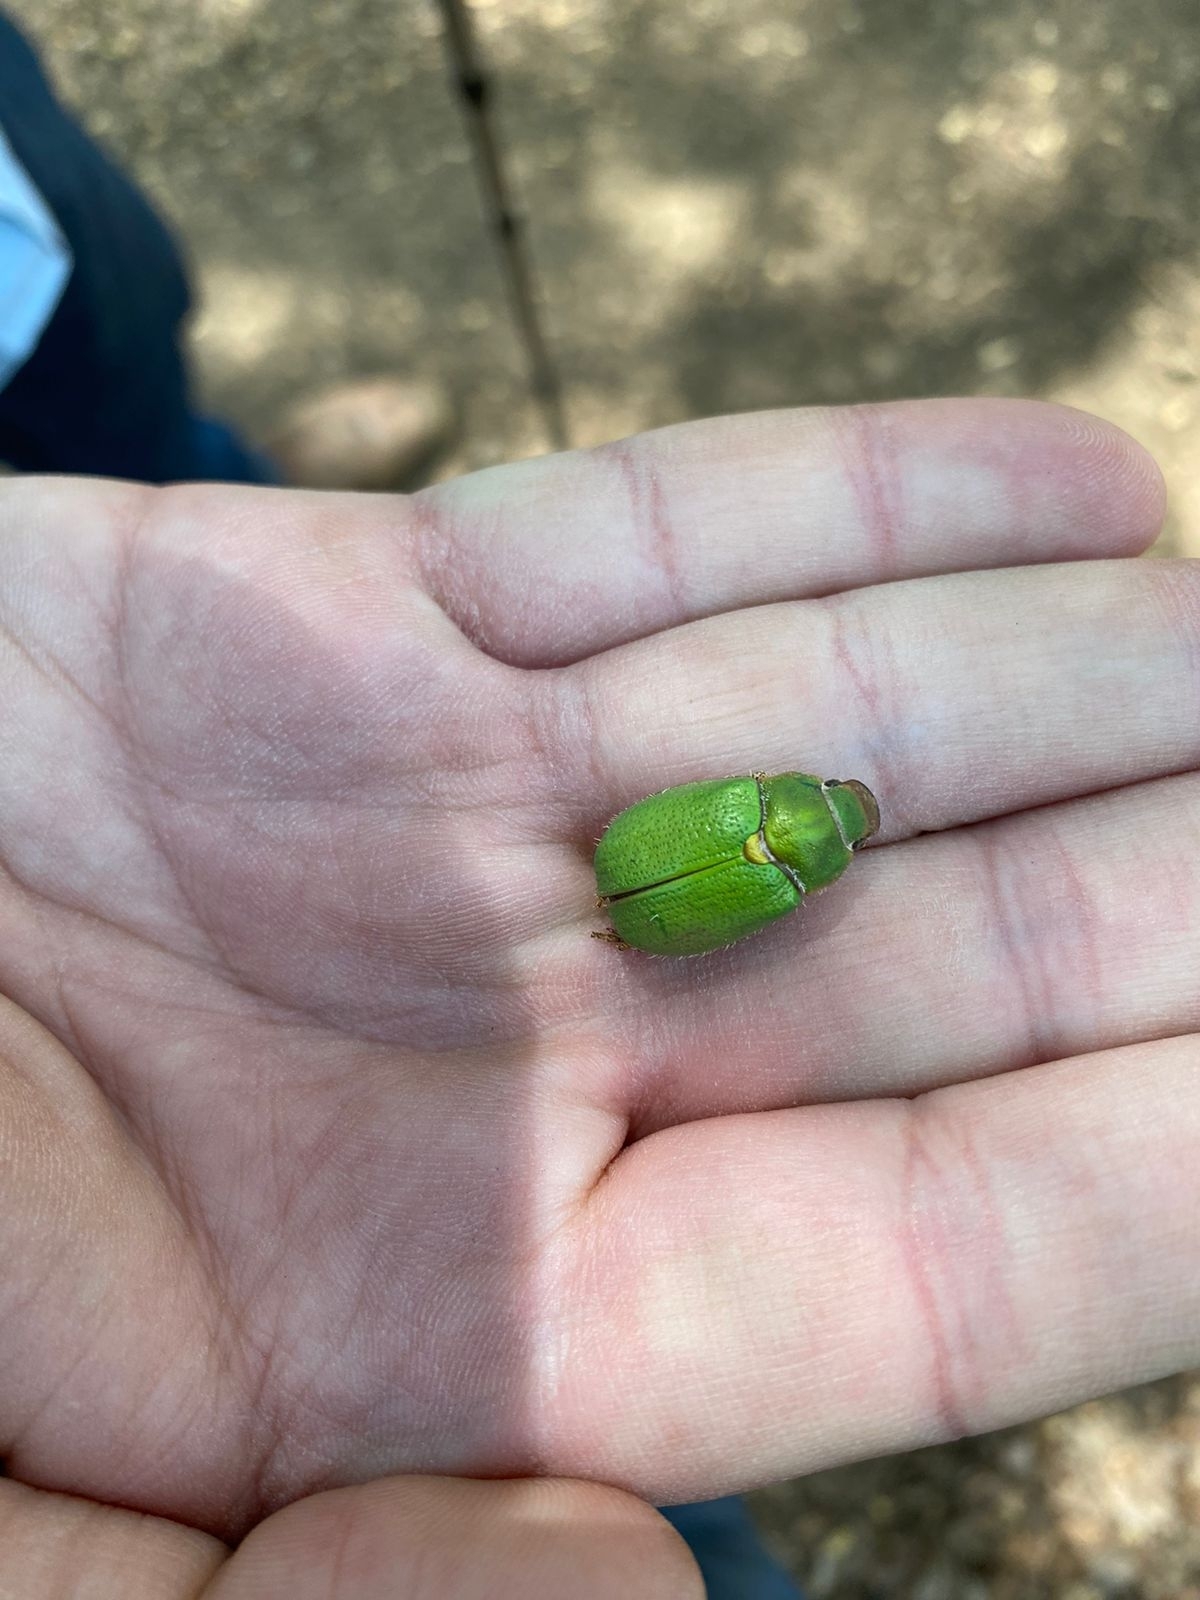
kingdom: Animalia
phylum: Arthropoda
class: Insecta
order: Coleoptera
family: Scarabaeidae
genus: Brachysternus
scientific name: Brachysternus prasinus
